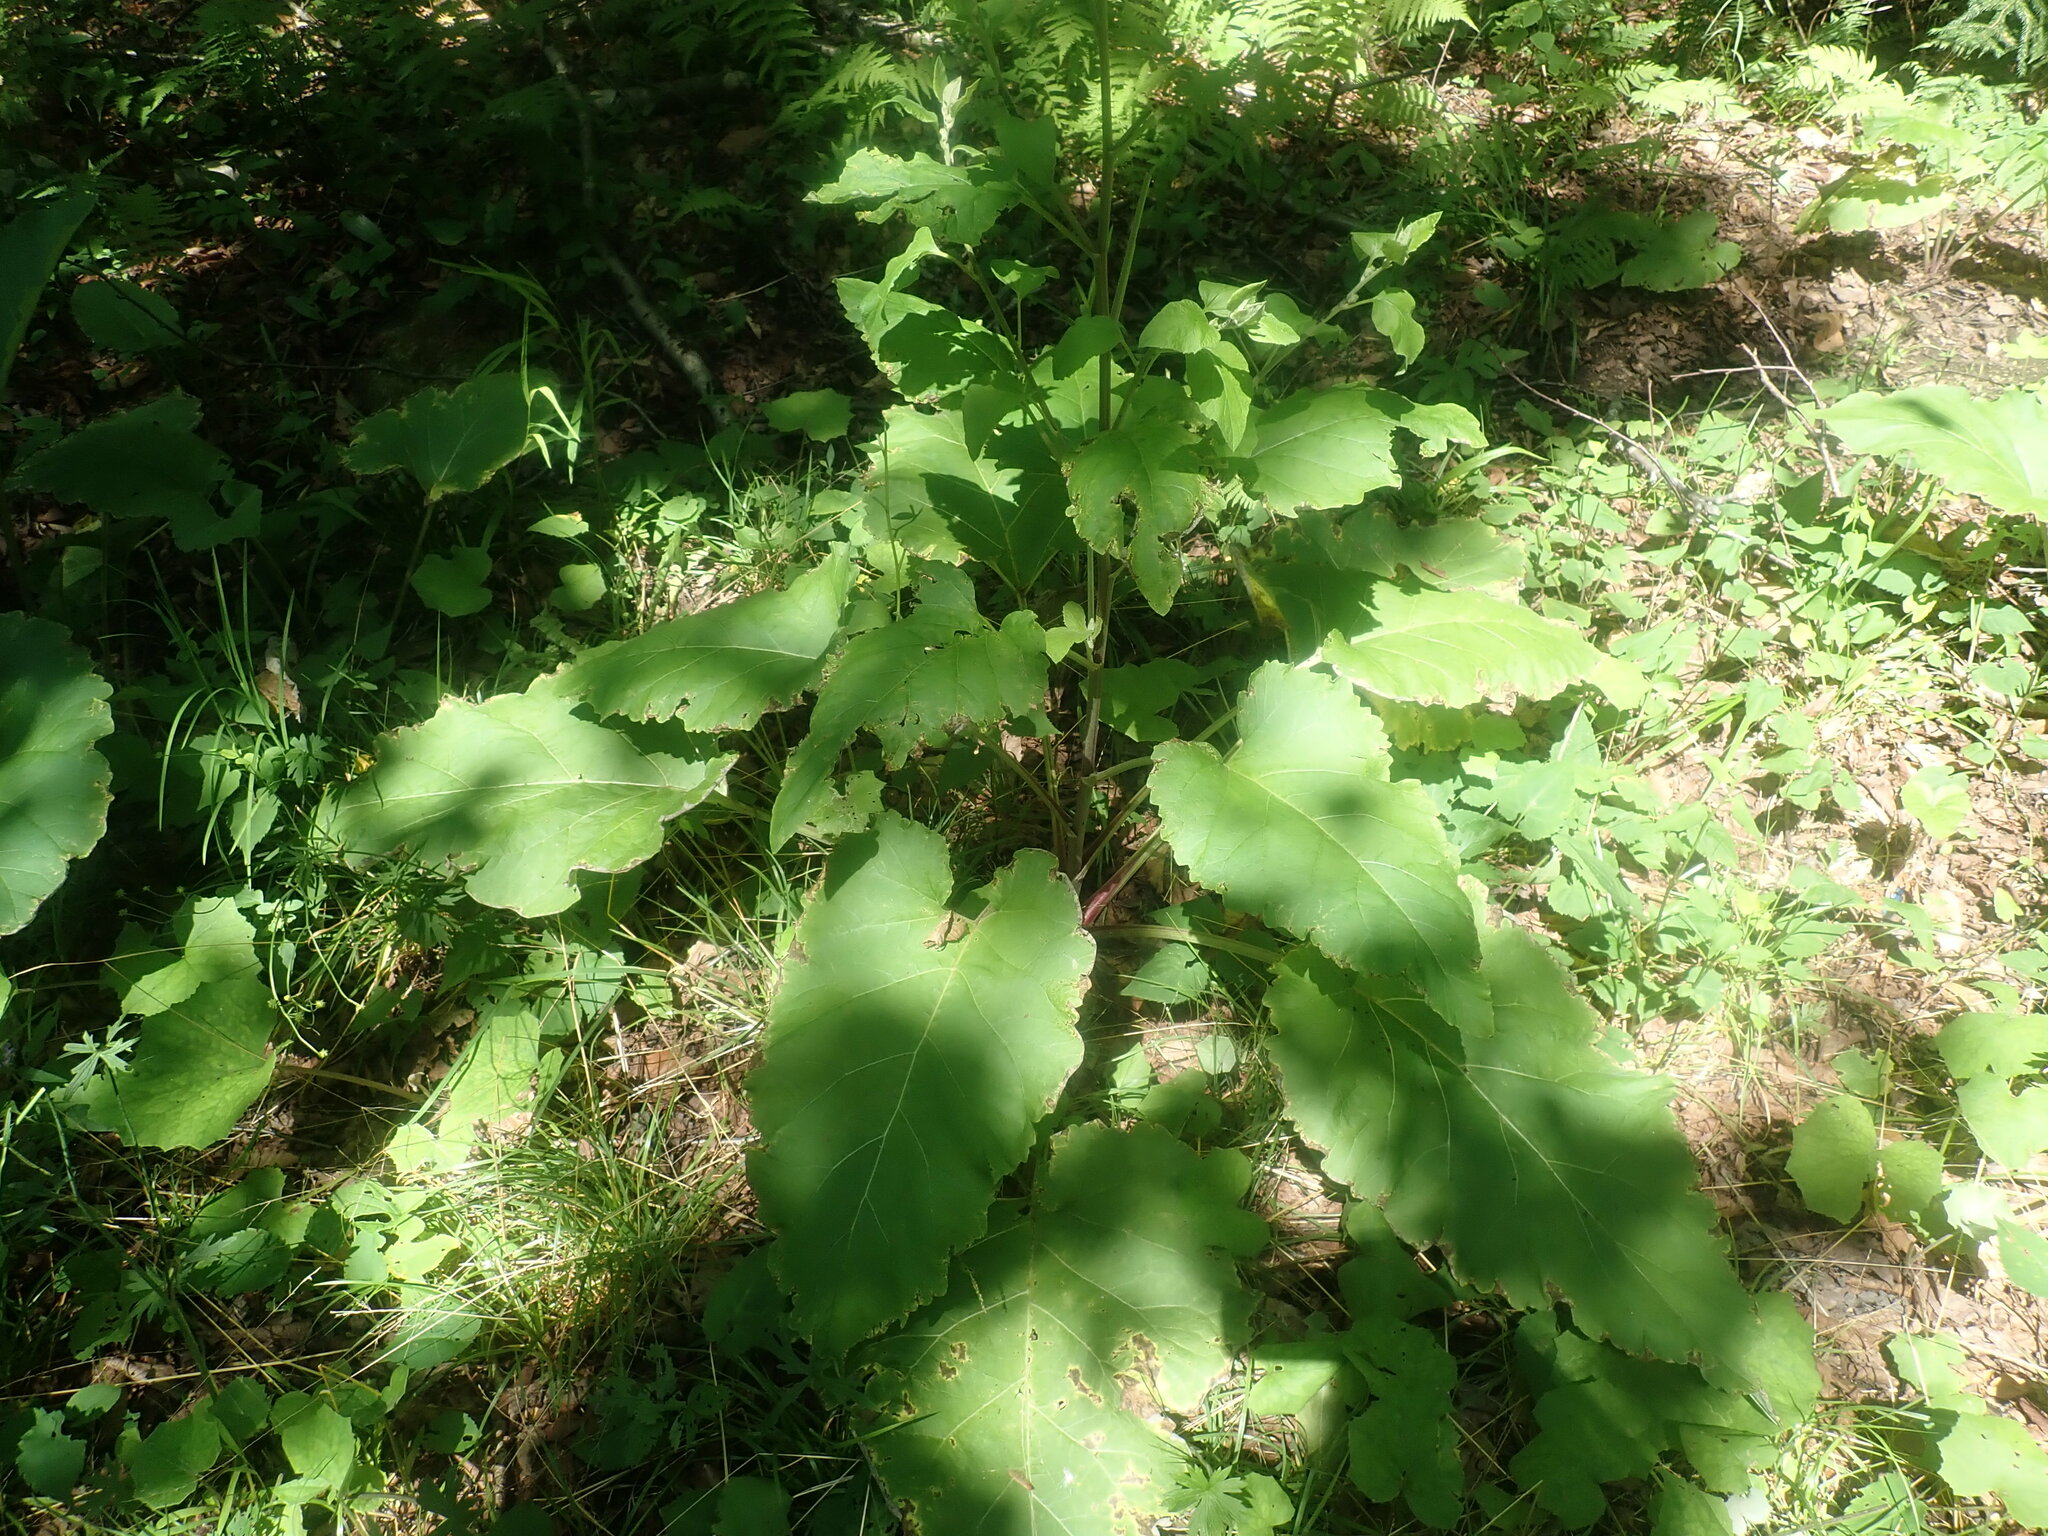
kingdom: Plantae
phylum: Tracheophyta
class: Magnoliopsida
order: Asterales
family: Asteraceae
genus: Arctium
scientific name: Arctium
